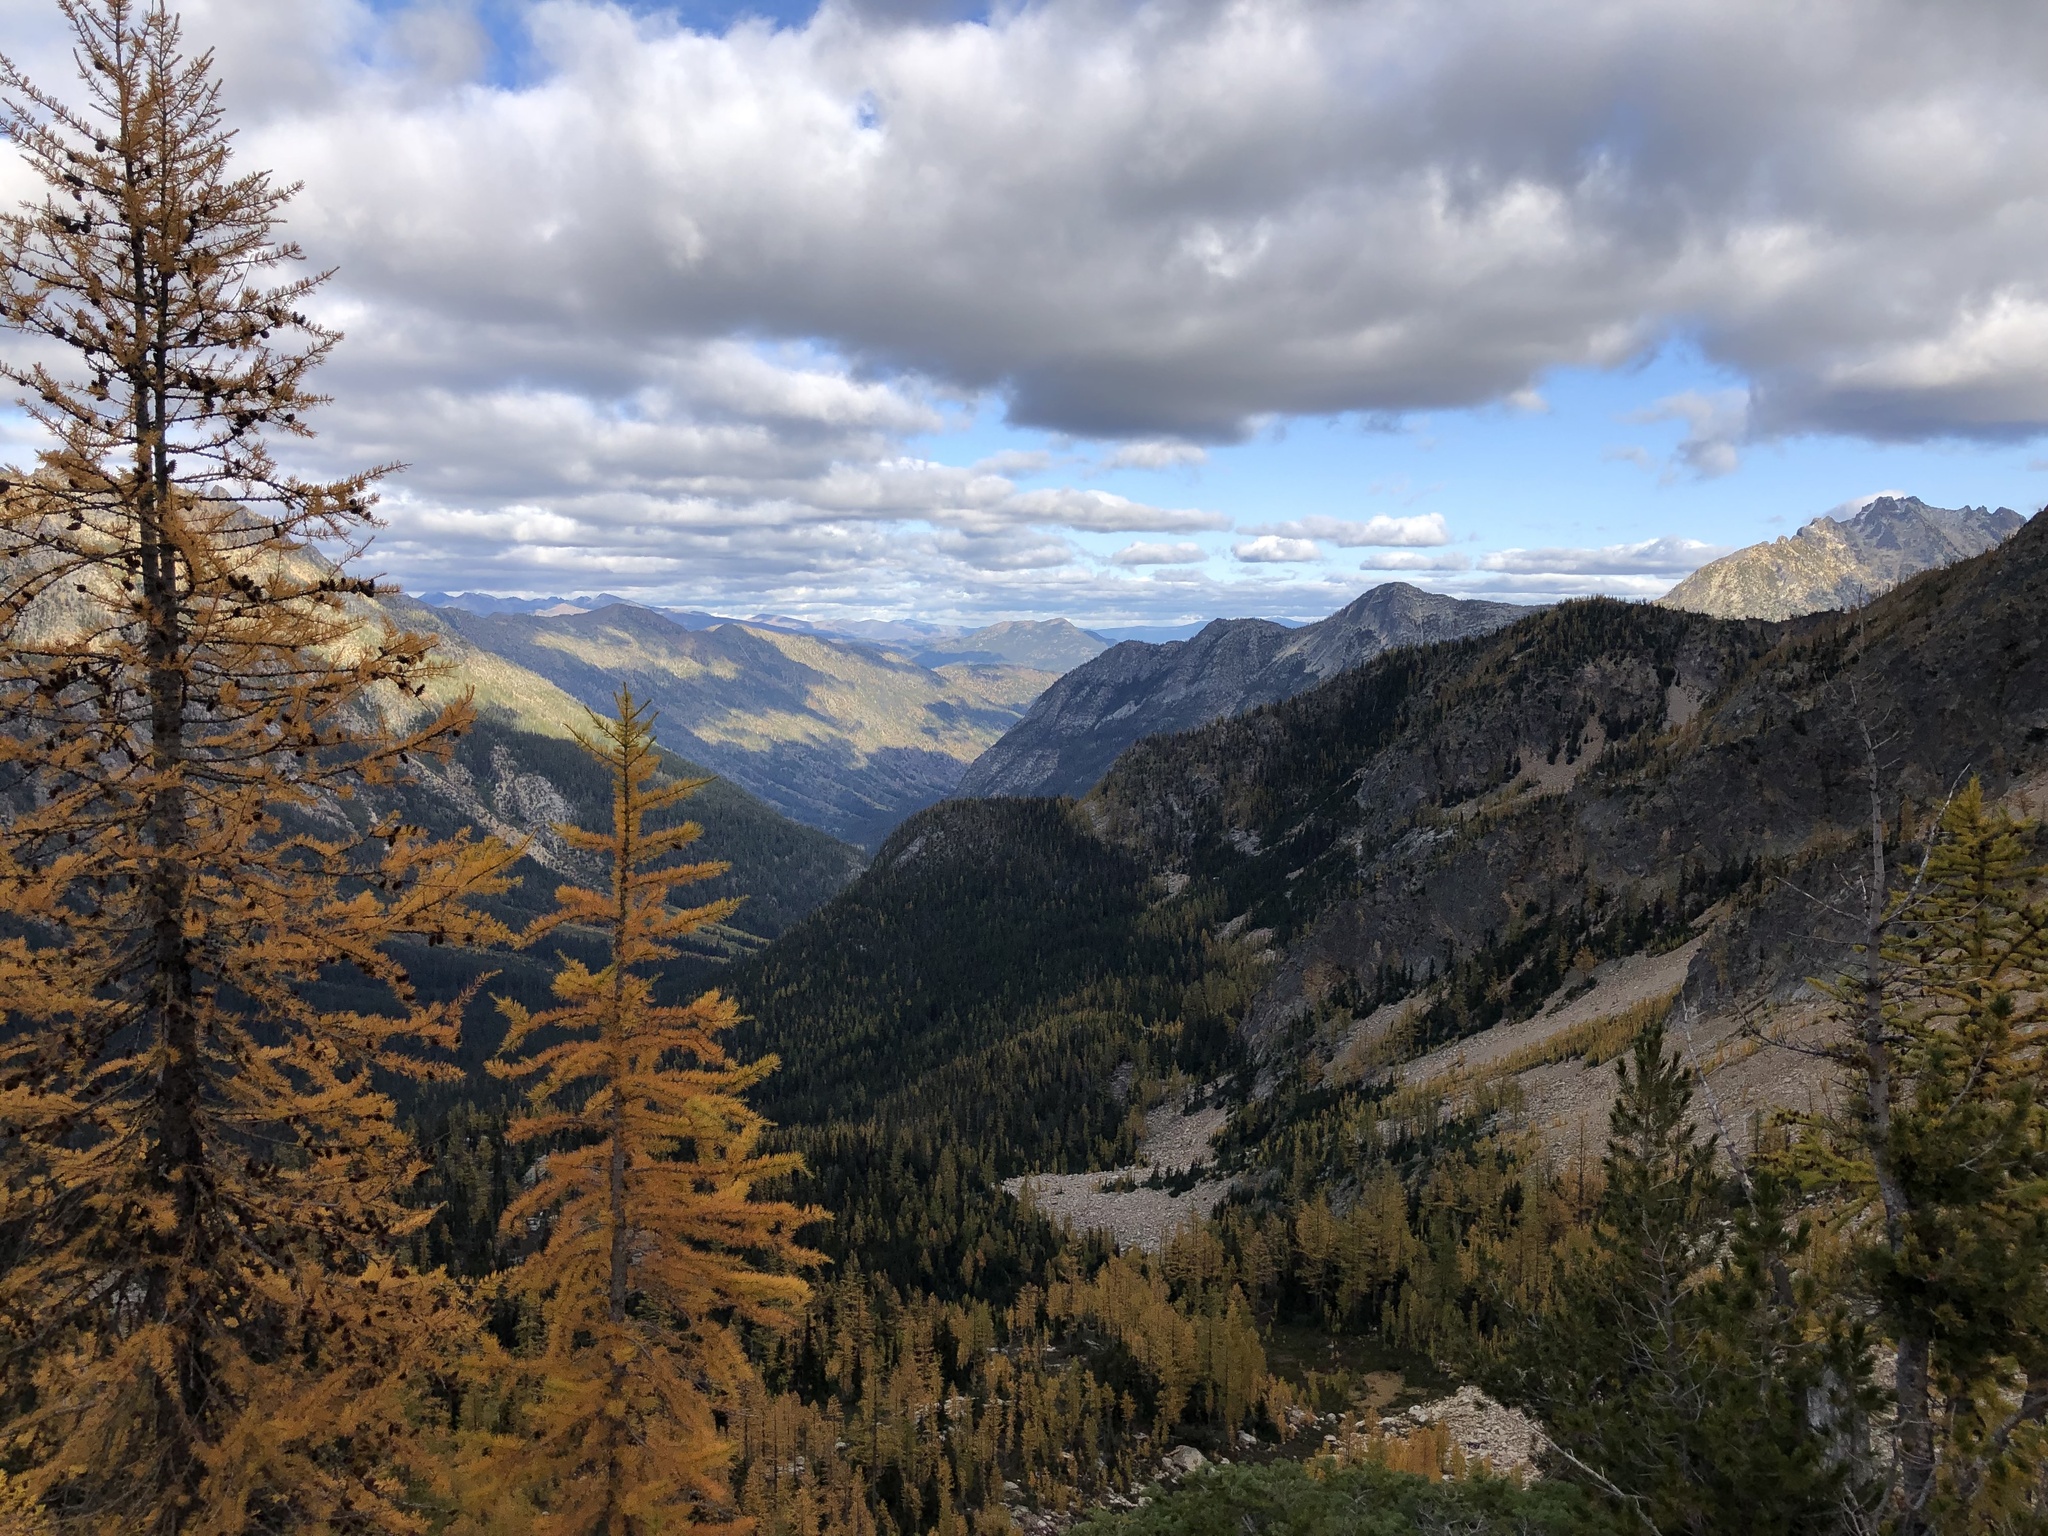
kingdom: Plantae
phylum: Tracheophyta
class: Pinopsida
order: Pinales
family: Pinaceae
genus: Pinus
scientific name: Pinus albicaulis
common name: Whitebark pine
